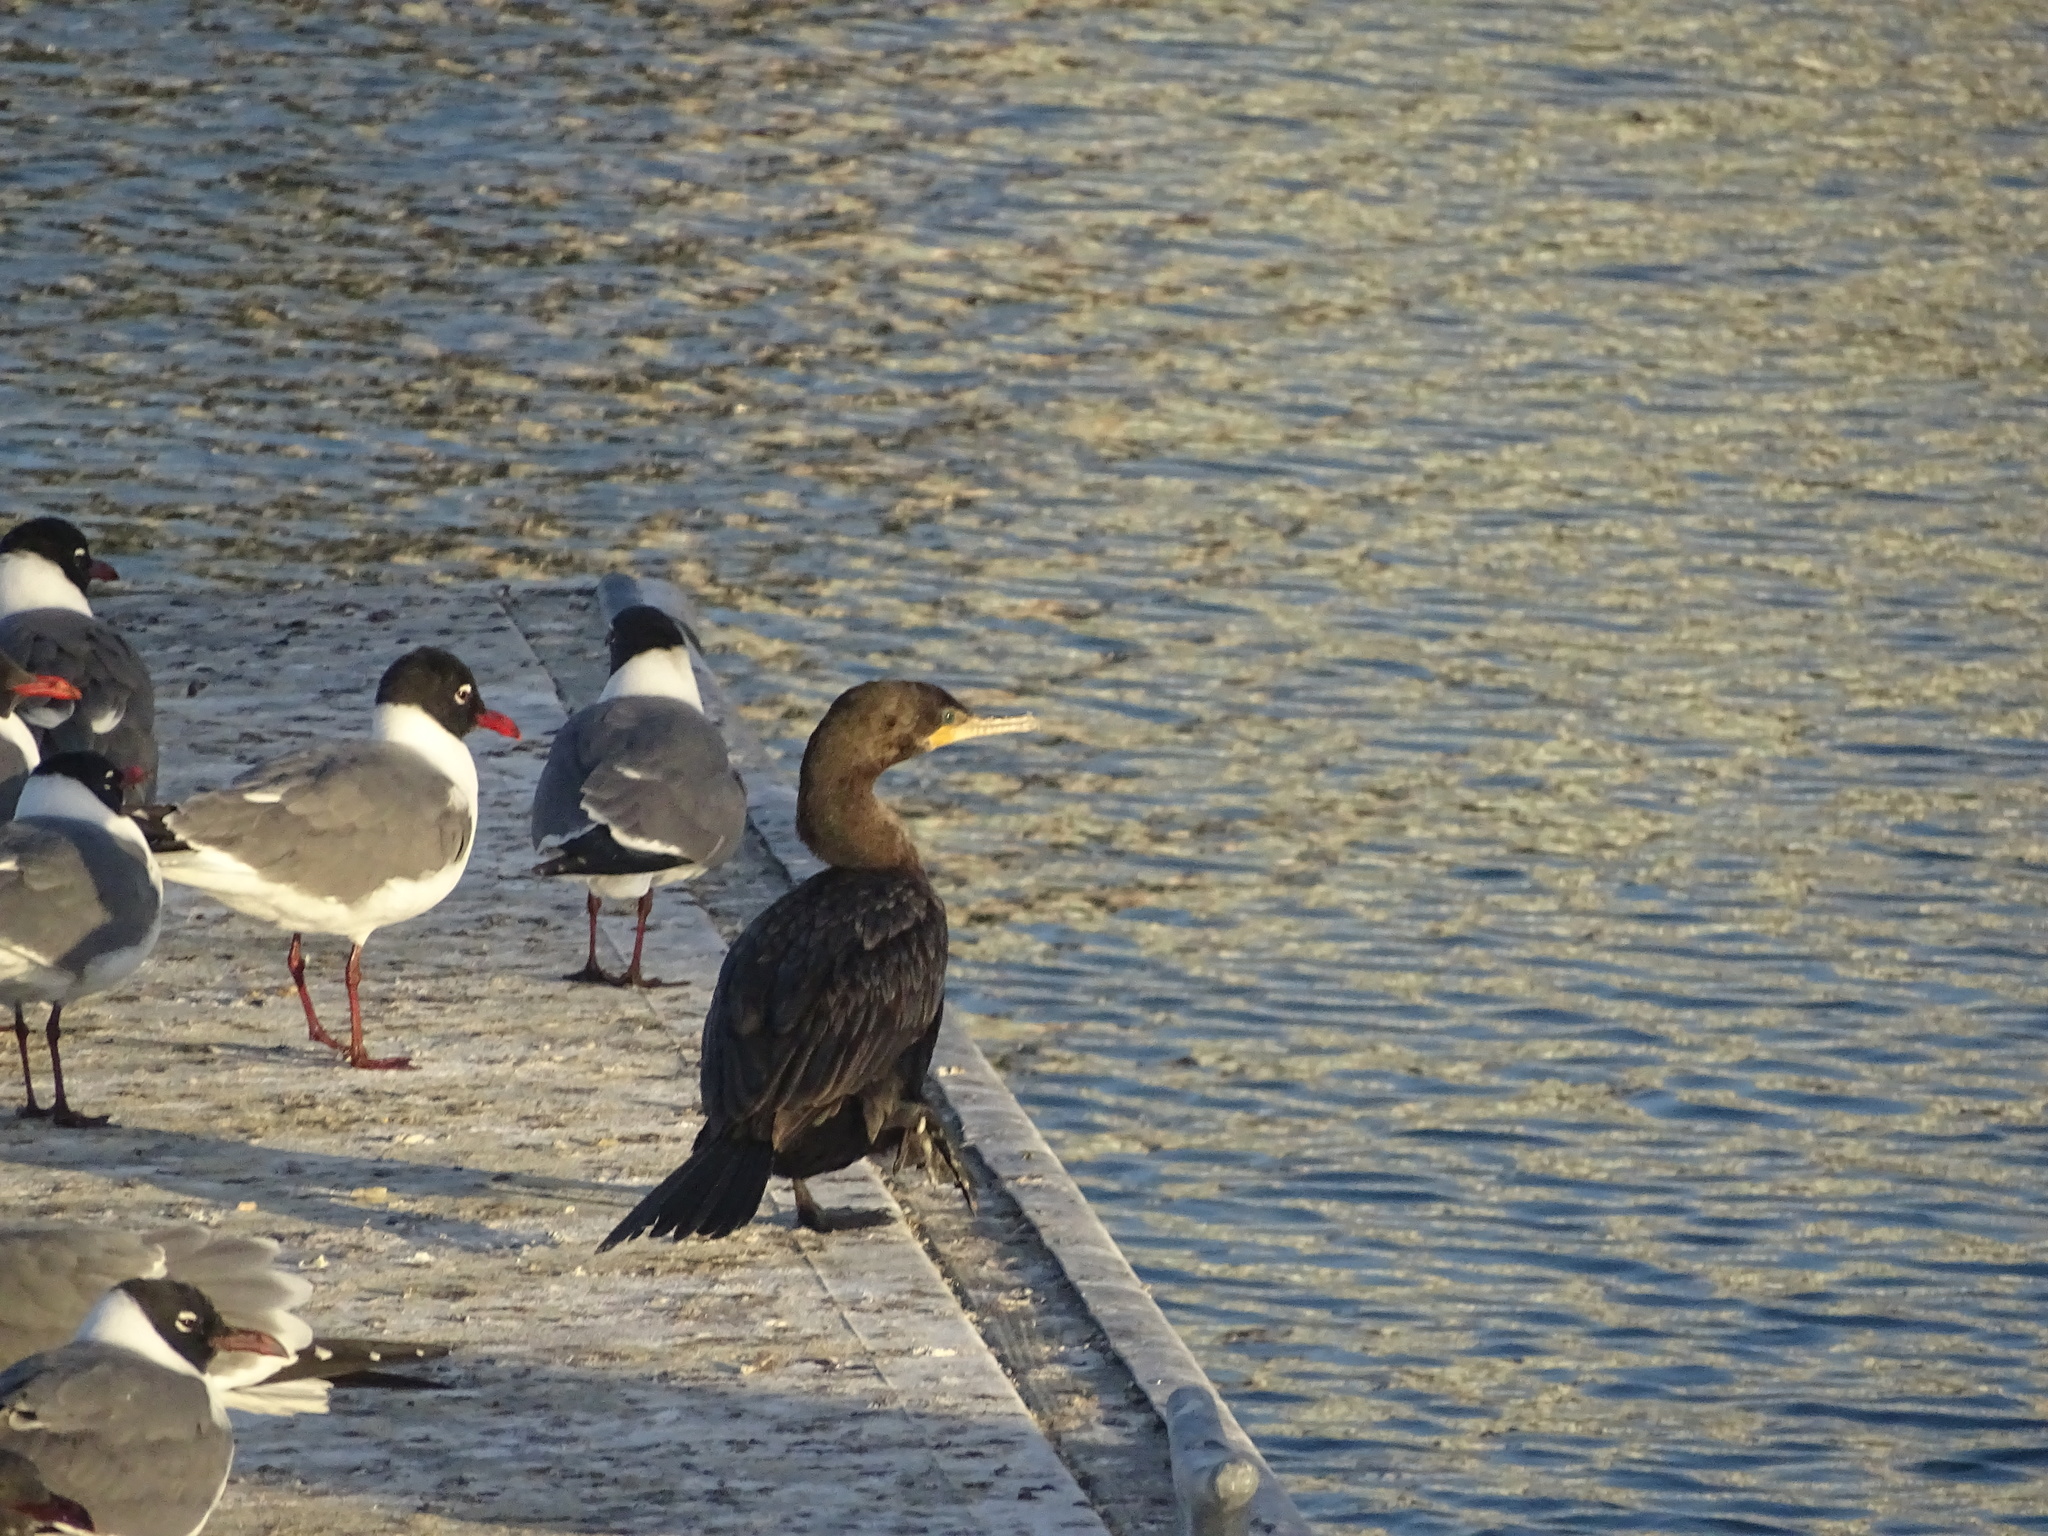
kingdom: Animalia
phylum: Chordata
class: Aves
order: Suliformes
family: Phalacrocoracidae
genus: Phalacrocorax
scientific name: Phalacrocorax brasilianus
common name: Neotropic cormorant
